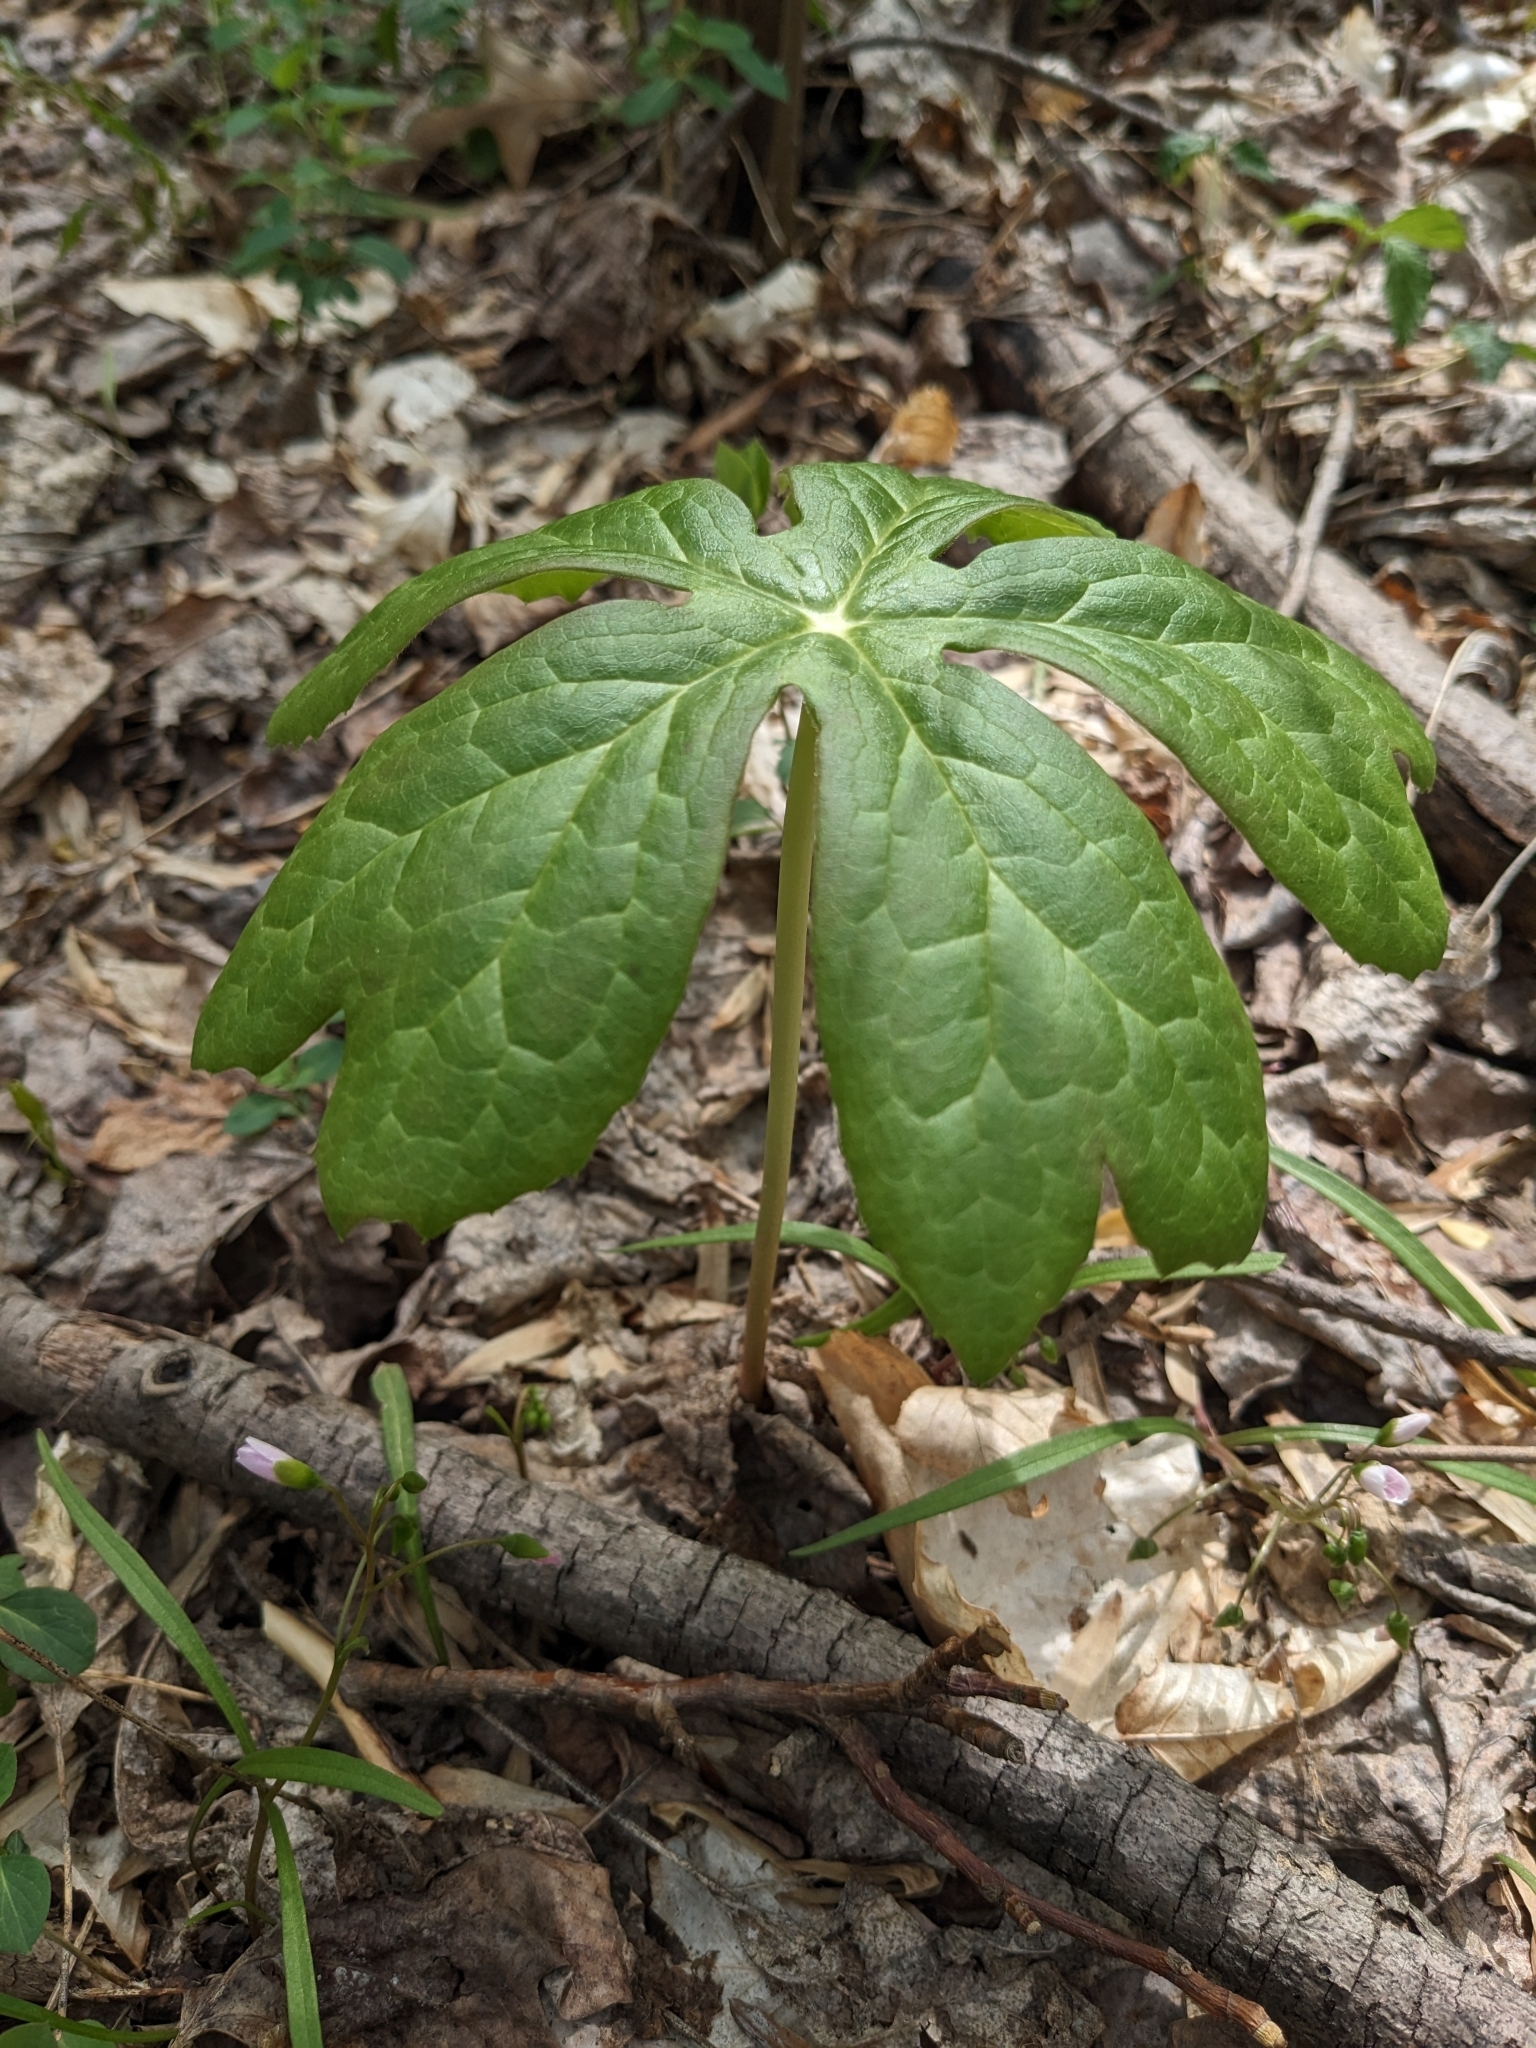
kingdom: Plantae
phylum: Tracheophyta
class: Magnoliopsida
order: Ranunculales
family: Berberidaceae
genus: Podophyllum
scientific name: Podophyllum peltatum
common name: Wild mandrake
